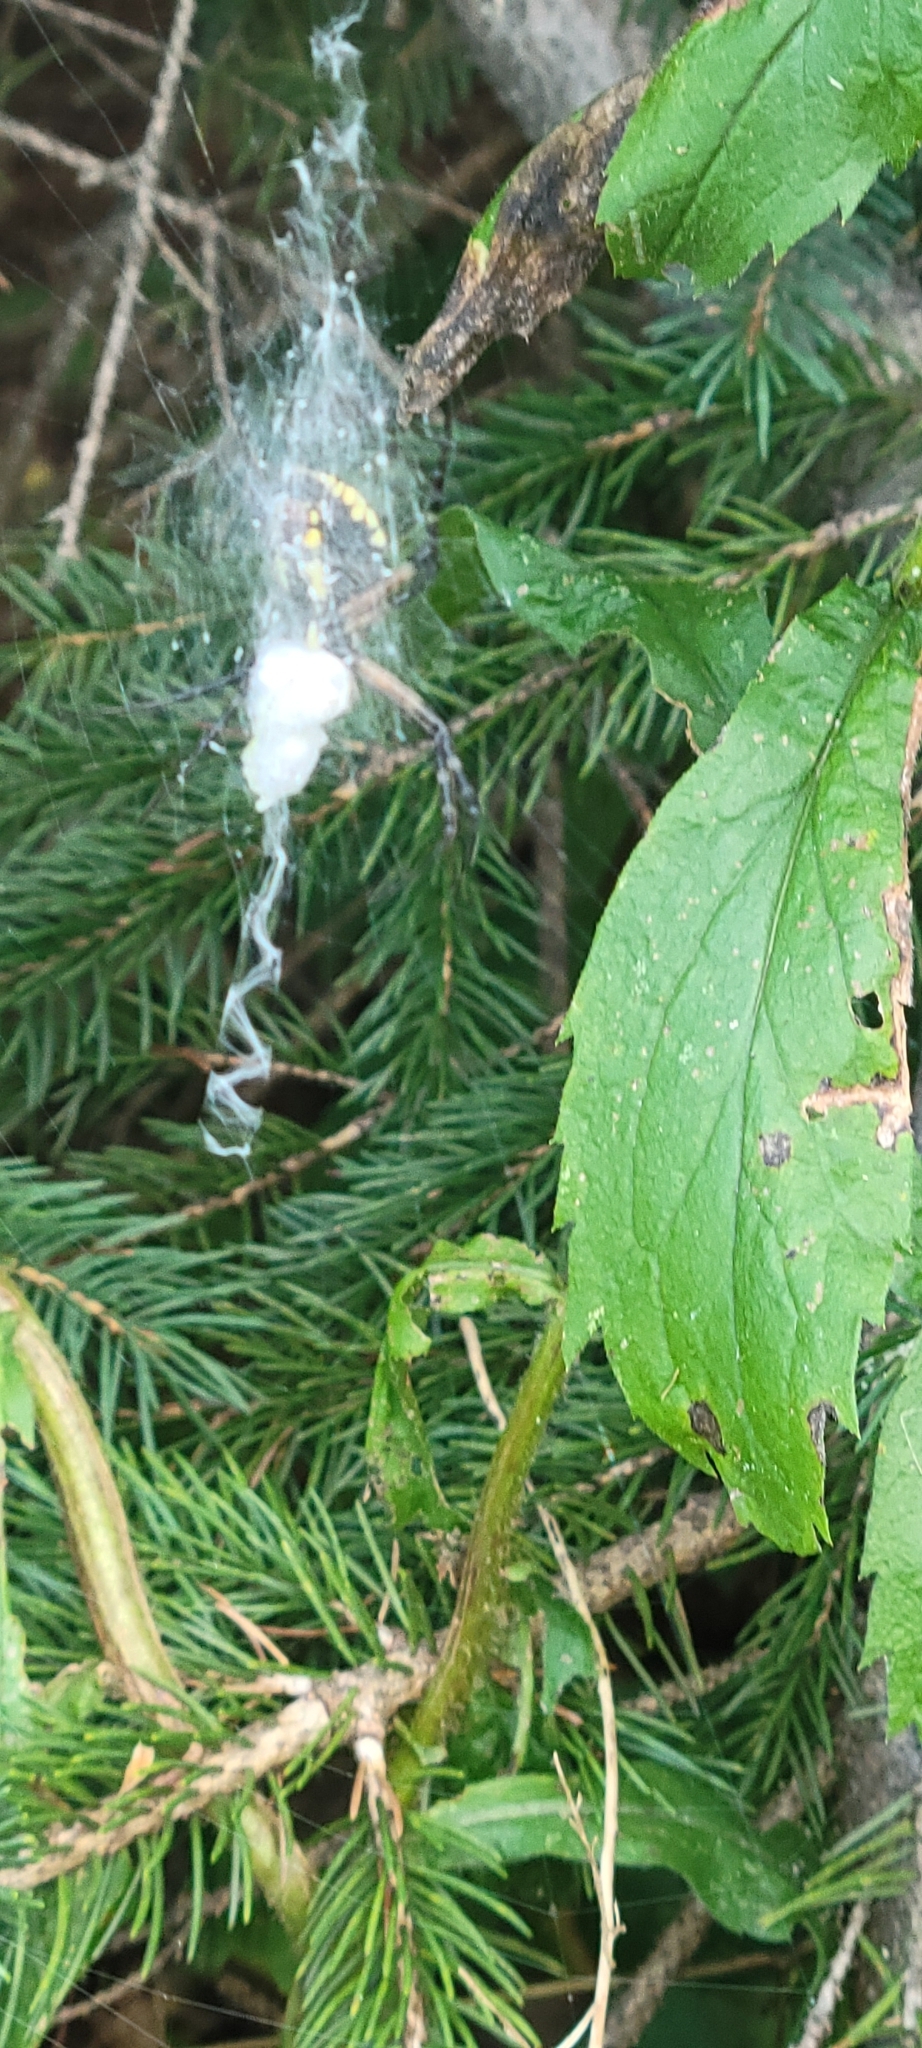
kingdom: Animalia
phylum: Arthropoda
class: Arachnida
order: Araneae
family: Araneidae
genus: Argiope
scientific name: Argiope aurantia
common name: Orb weavers
